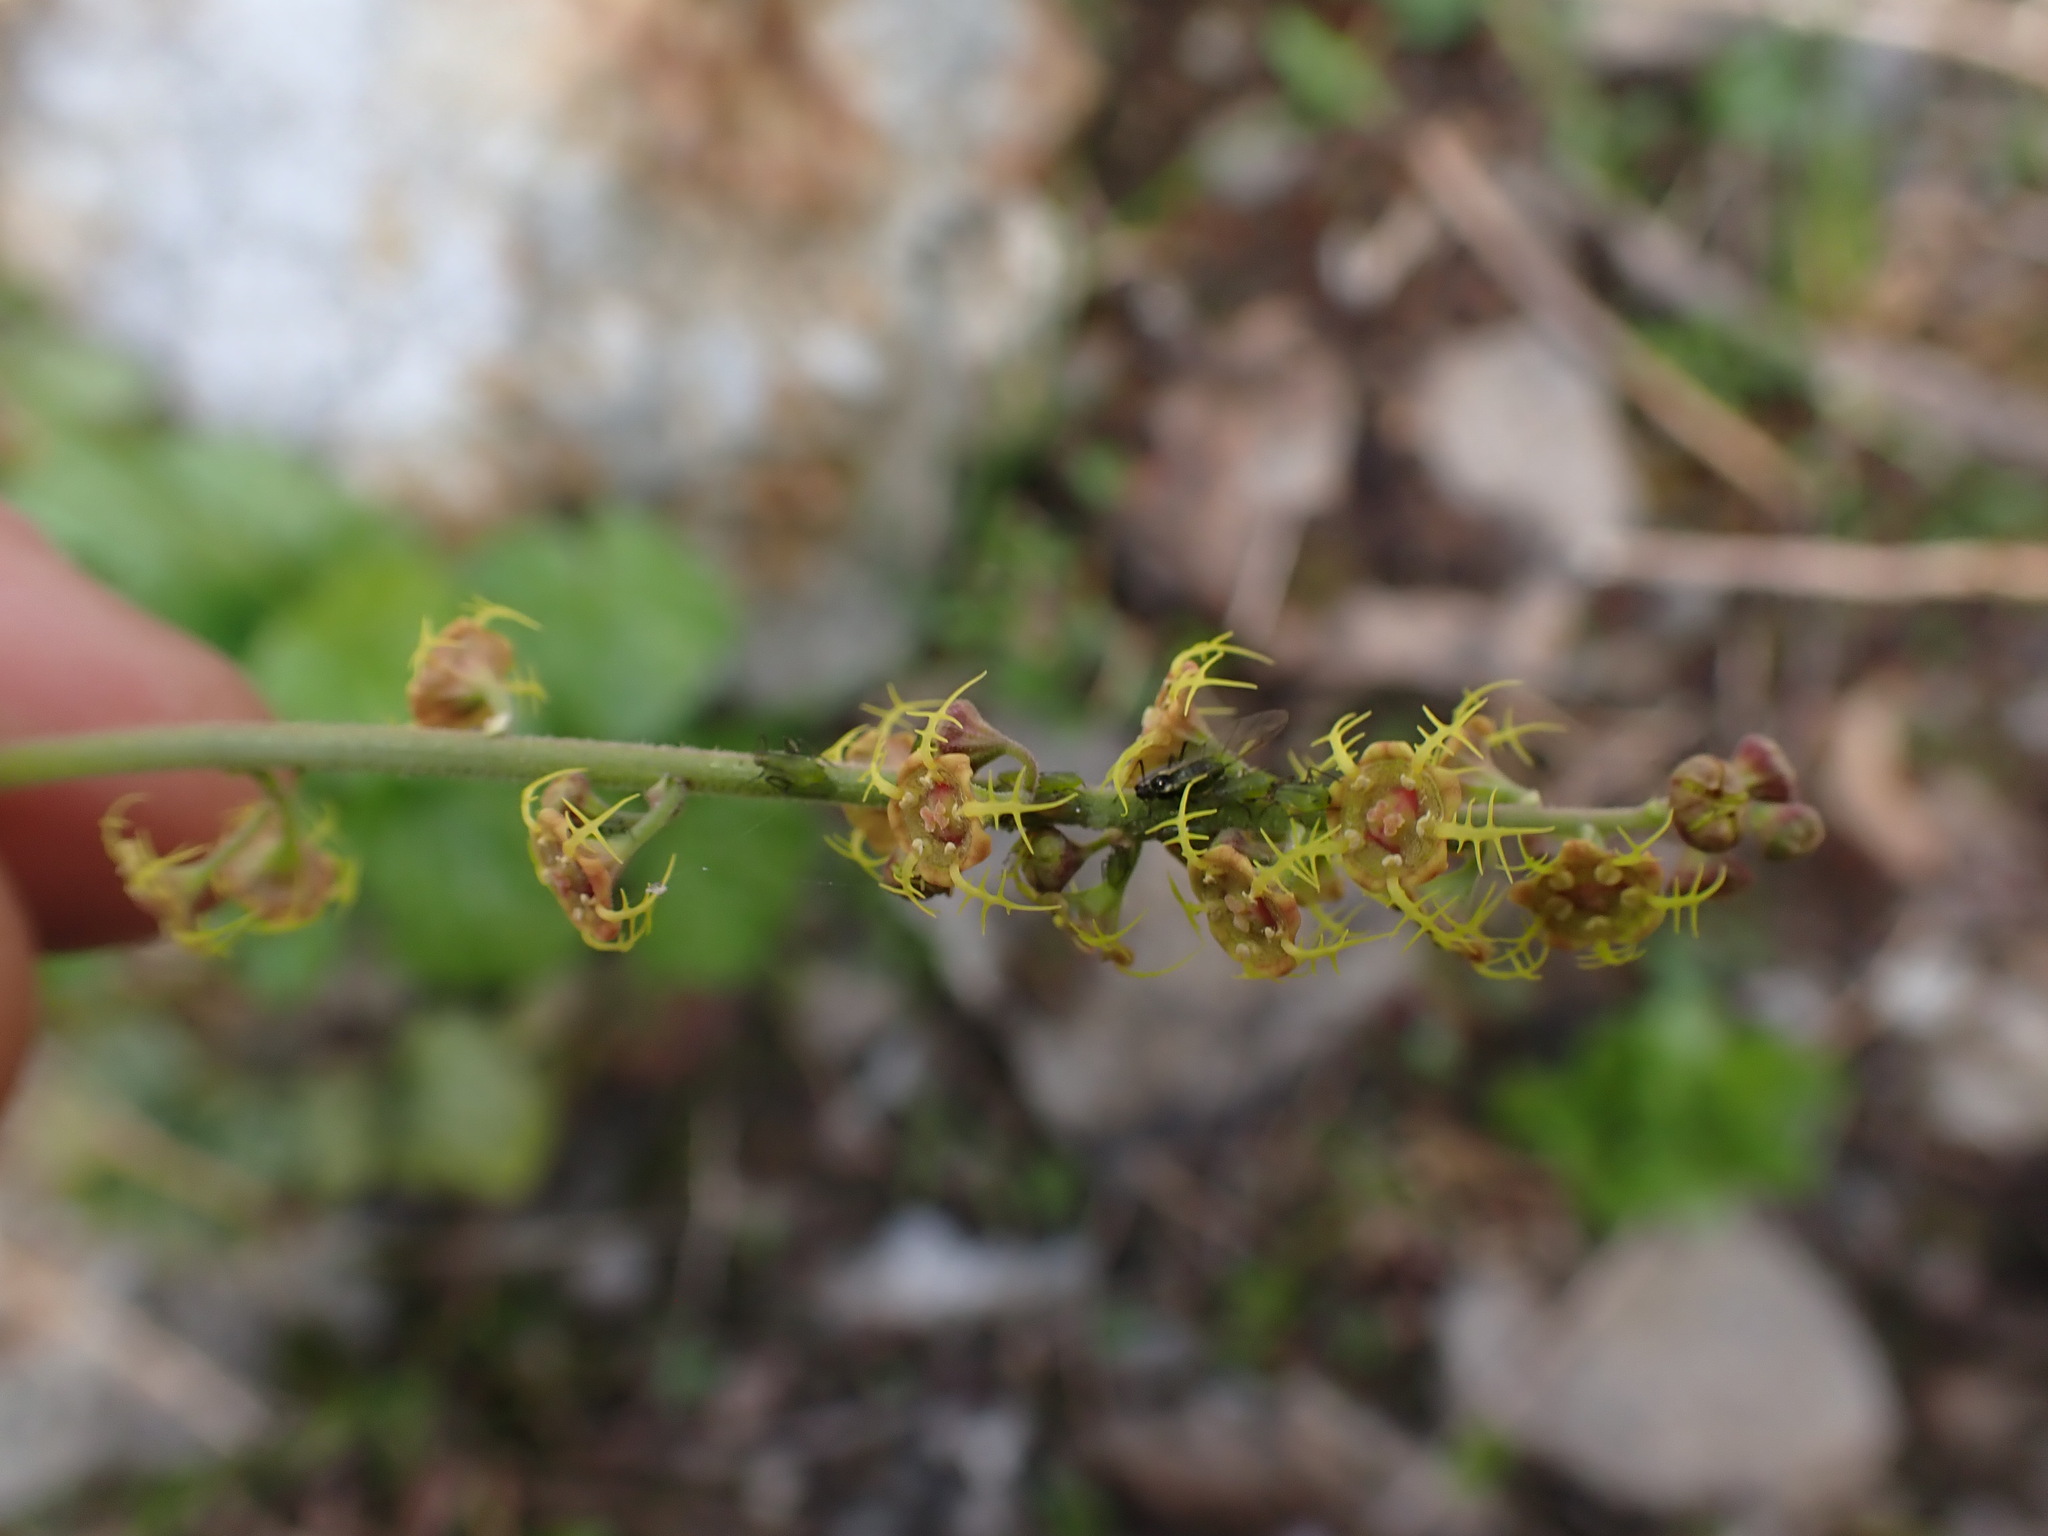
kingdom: Plantae
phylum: Tracheophyta
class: Magnoliopsida
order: Saxifragales
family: Saxifragaceae
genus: Pectiantia
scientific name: Pectiantia pentandra
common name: Alpine bishop's-cap
